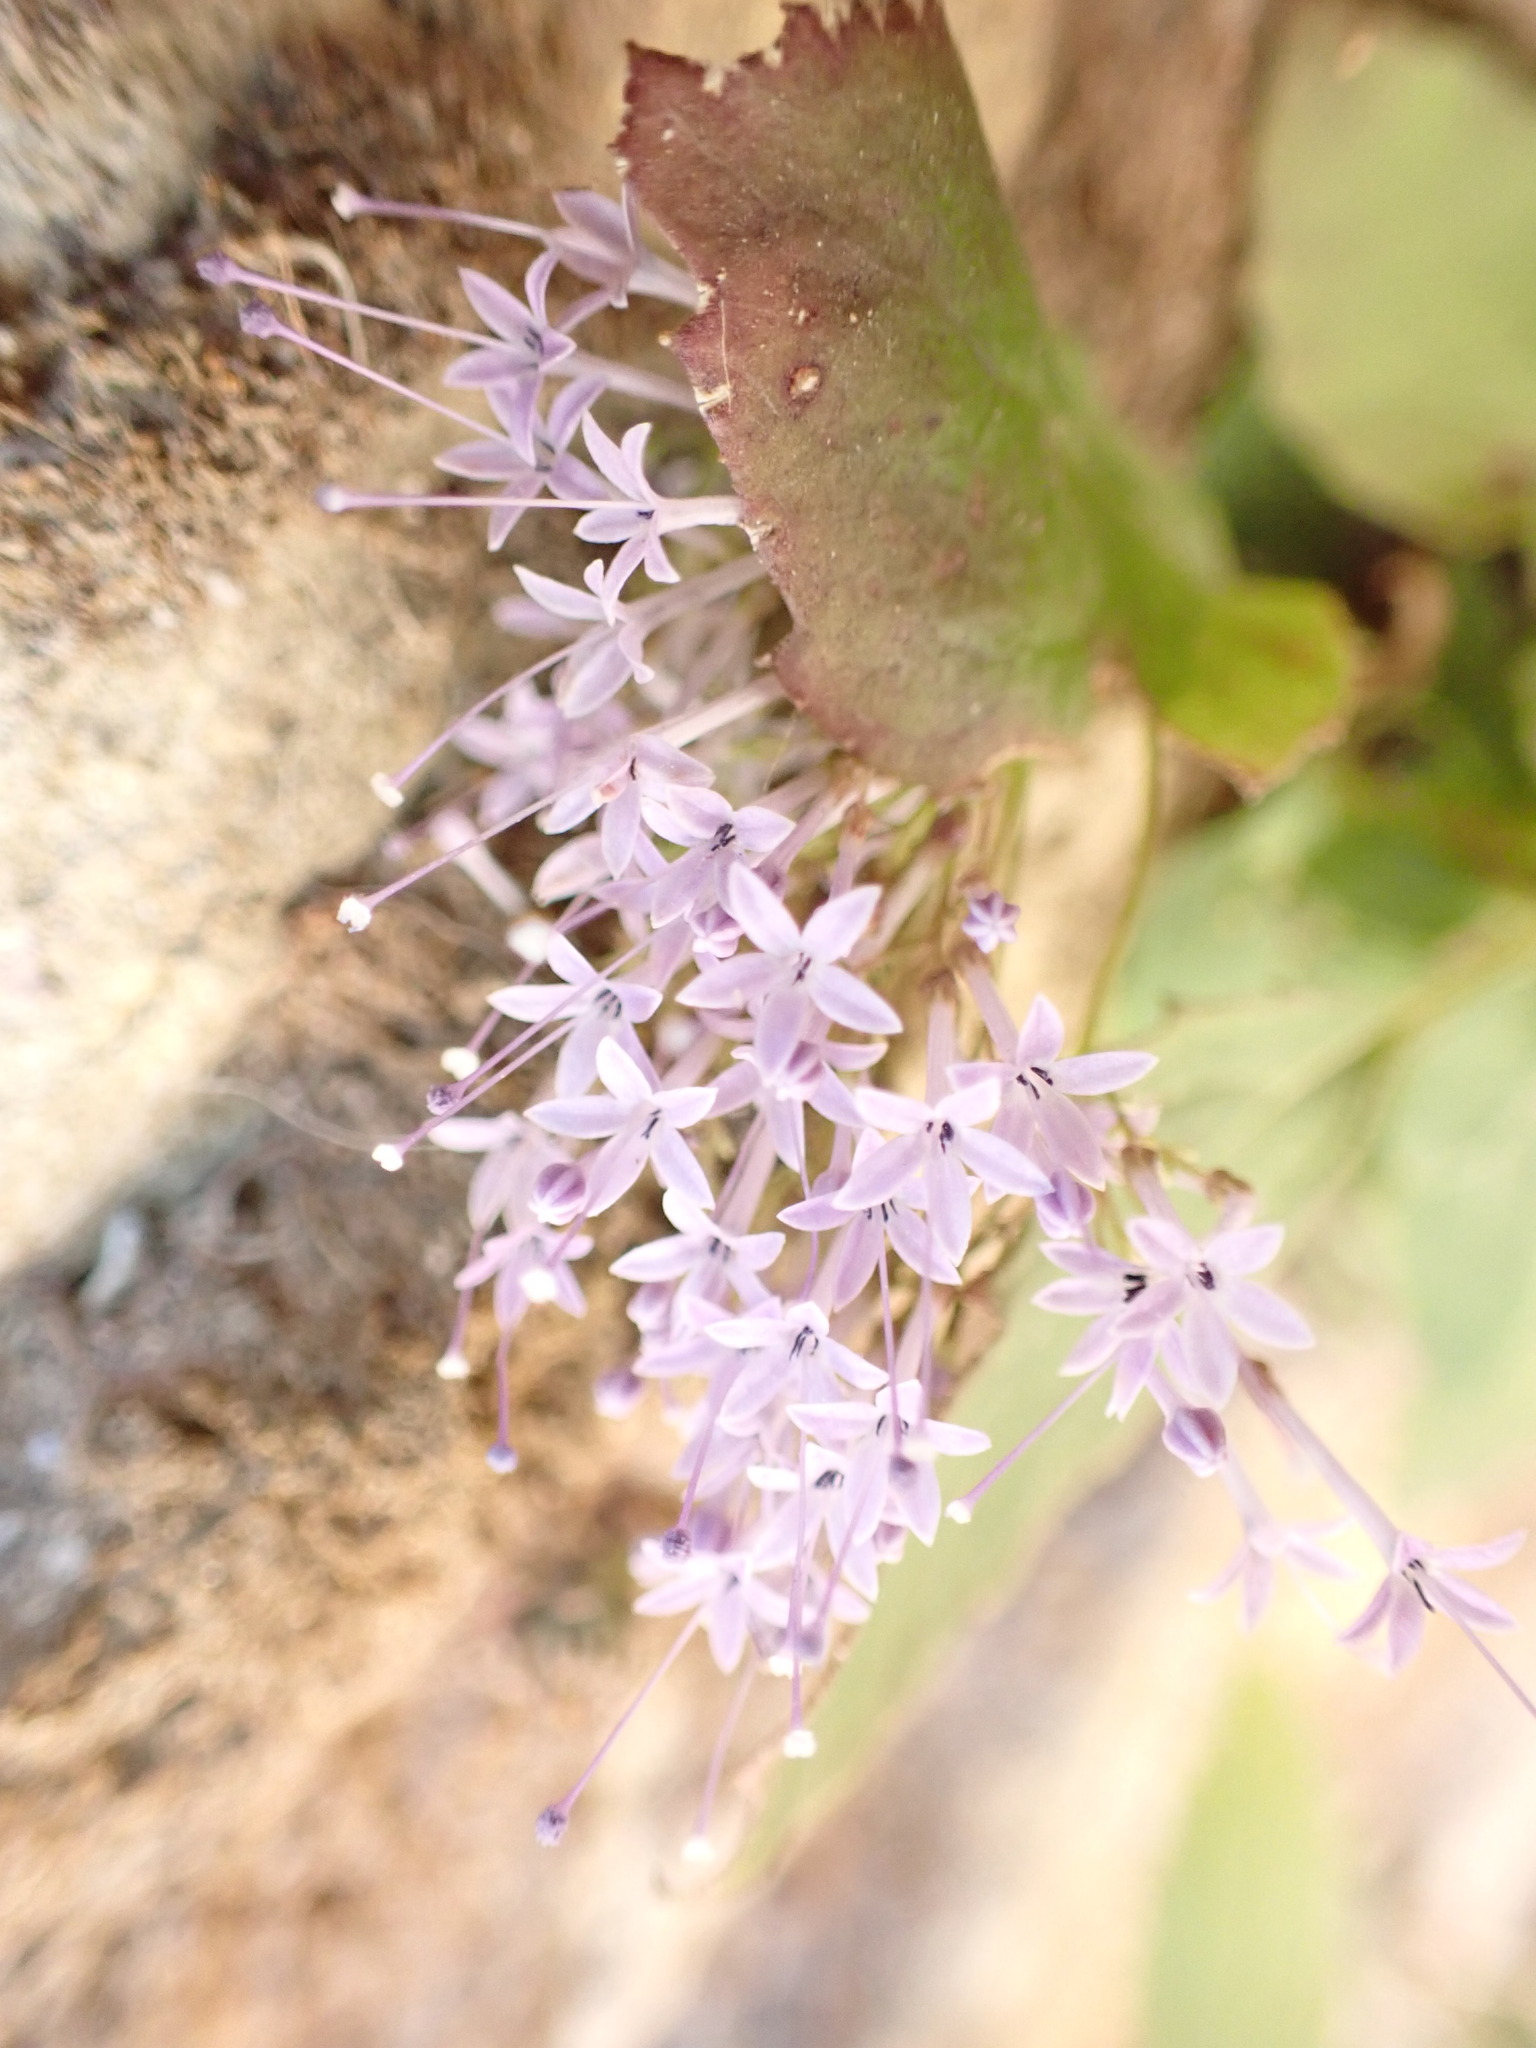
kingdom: Plantae
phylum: Tracheophyta
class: Magnoliopsida
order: Asterales
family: Campanulaceae
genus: Trachelium
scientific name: Trachelium caeruleum
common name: Throatwort
